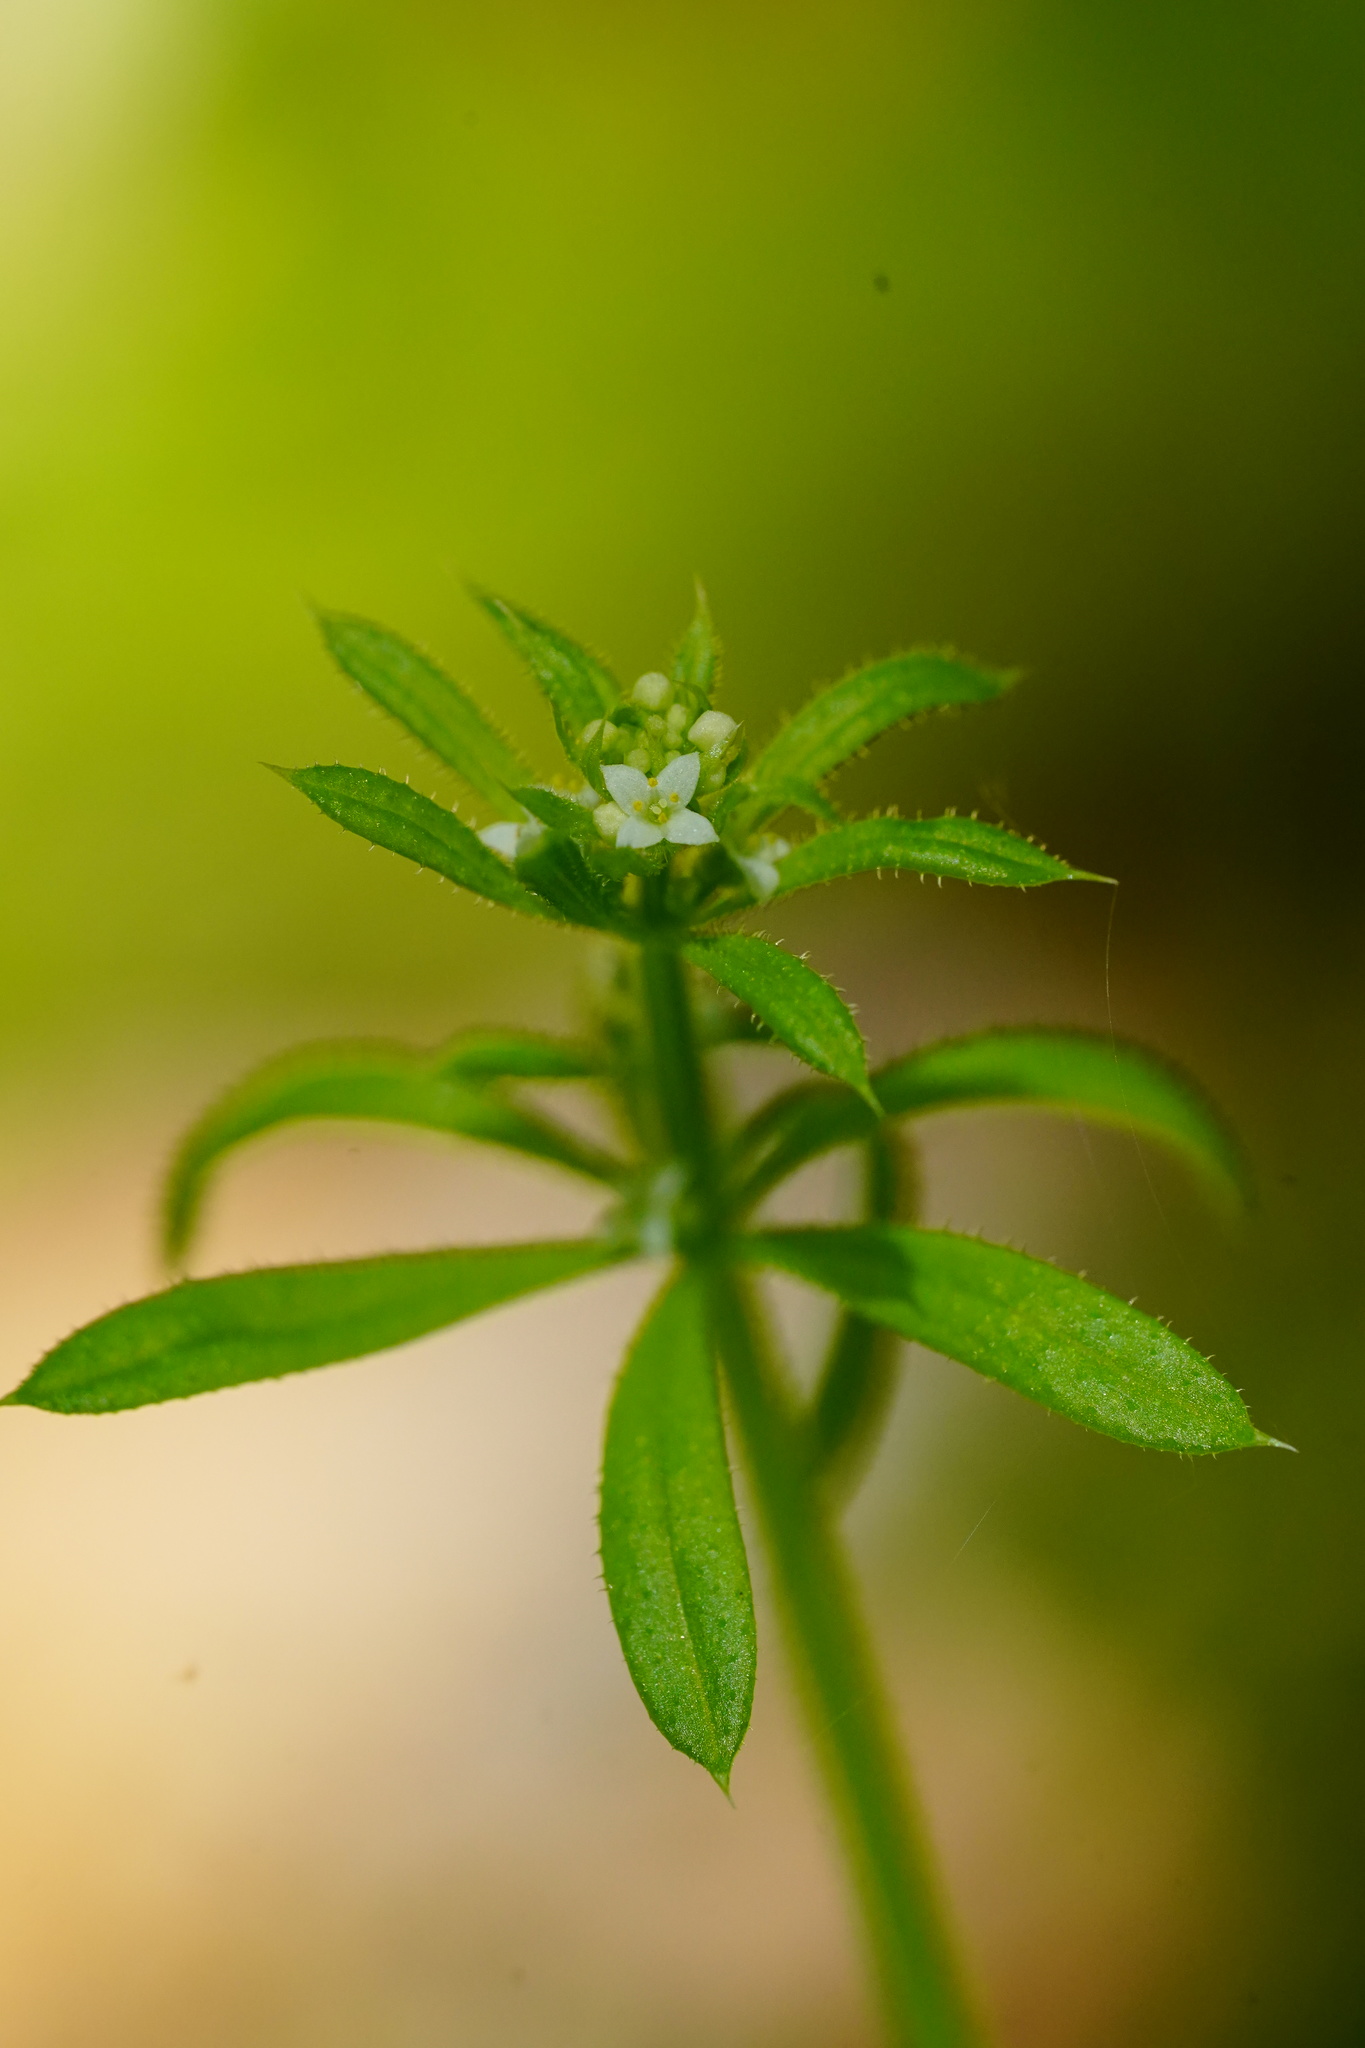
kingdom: Plantae
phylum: Tracheophyta
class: Magnoliopsida
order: Gentianales
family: Rubiaceae
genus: Galium
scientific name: Galium aparine
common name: Cleavers
